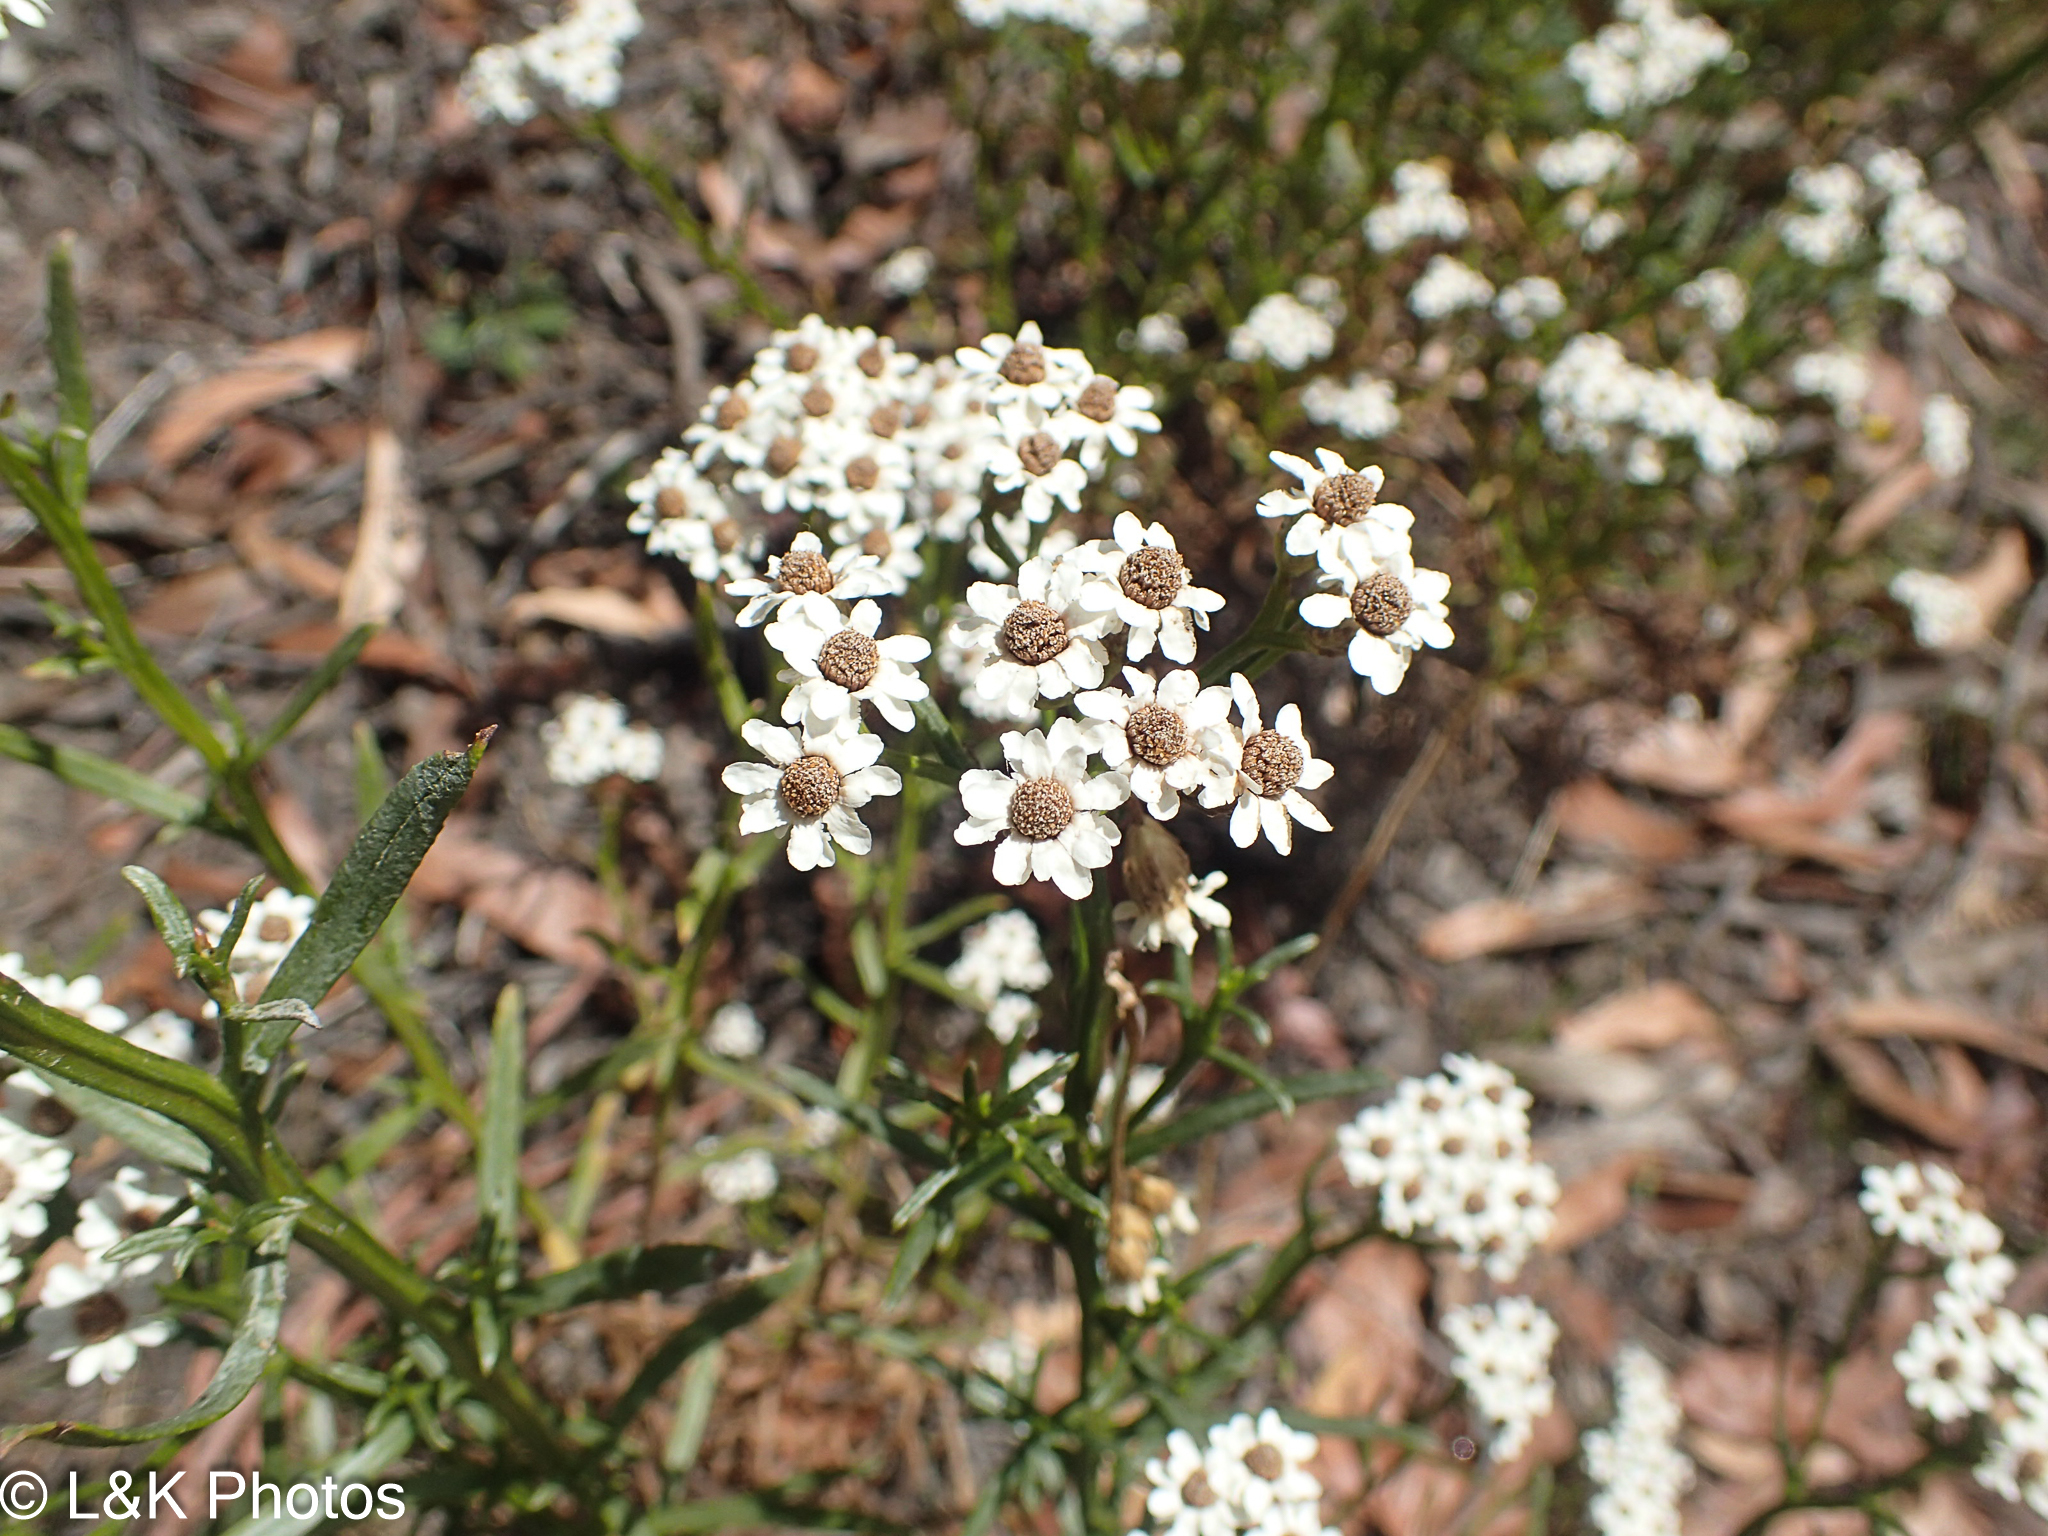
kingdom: Plantae
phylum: Tracheophyta
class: Magnoliopsida
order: Asterales
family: Asteraceae
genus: Ixodia
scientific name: Ixodia achillaeoides
